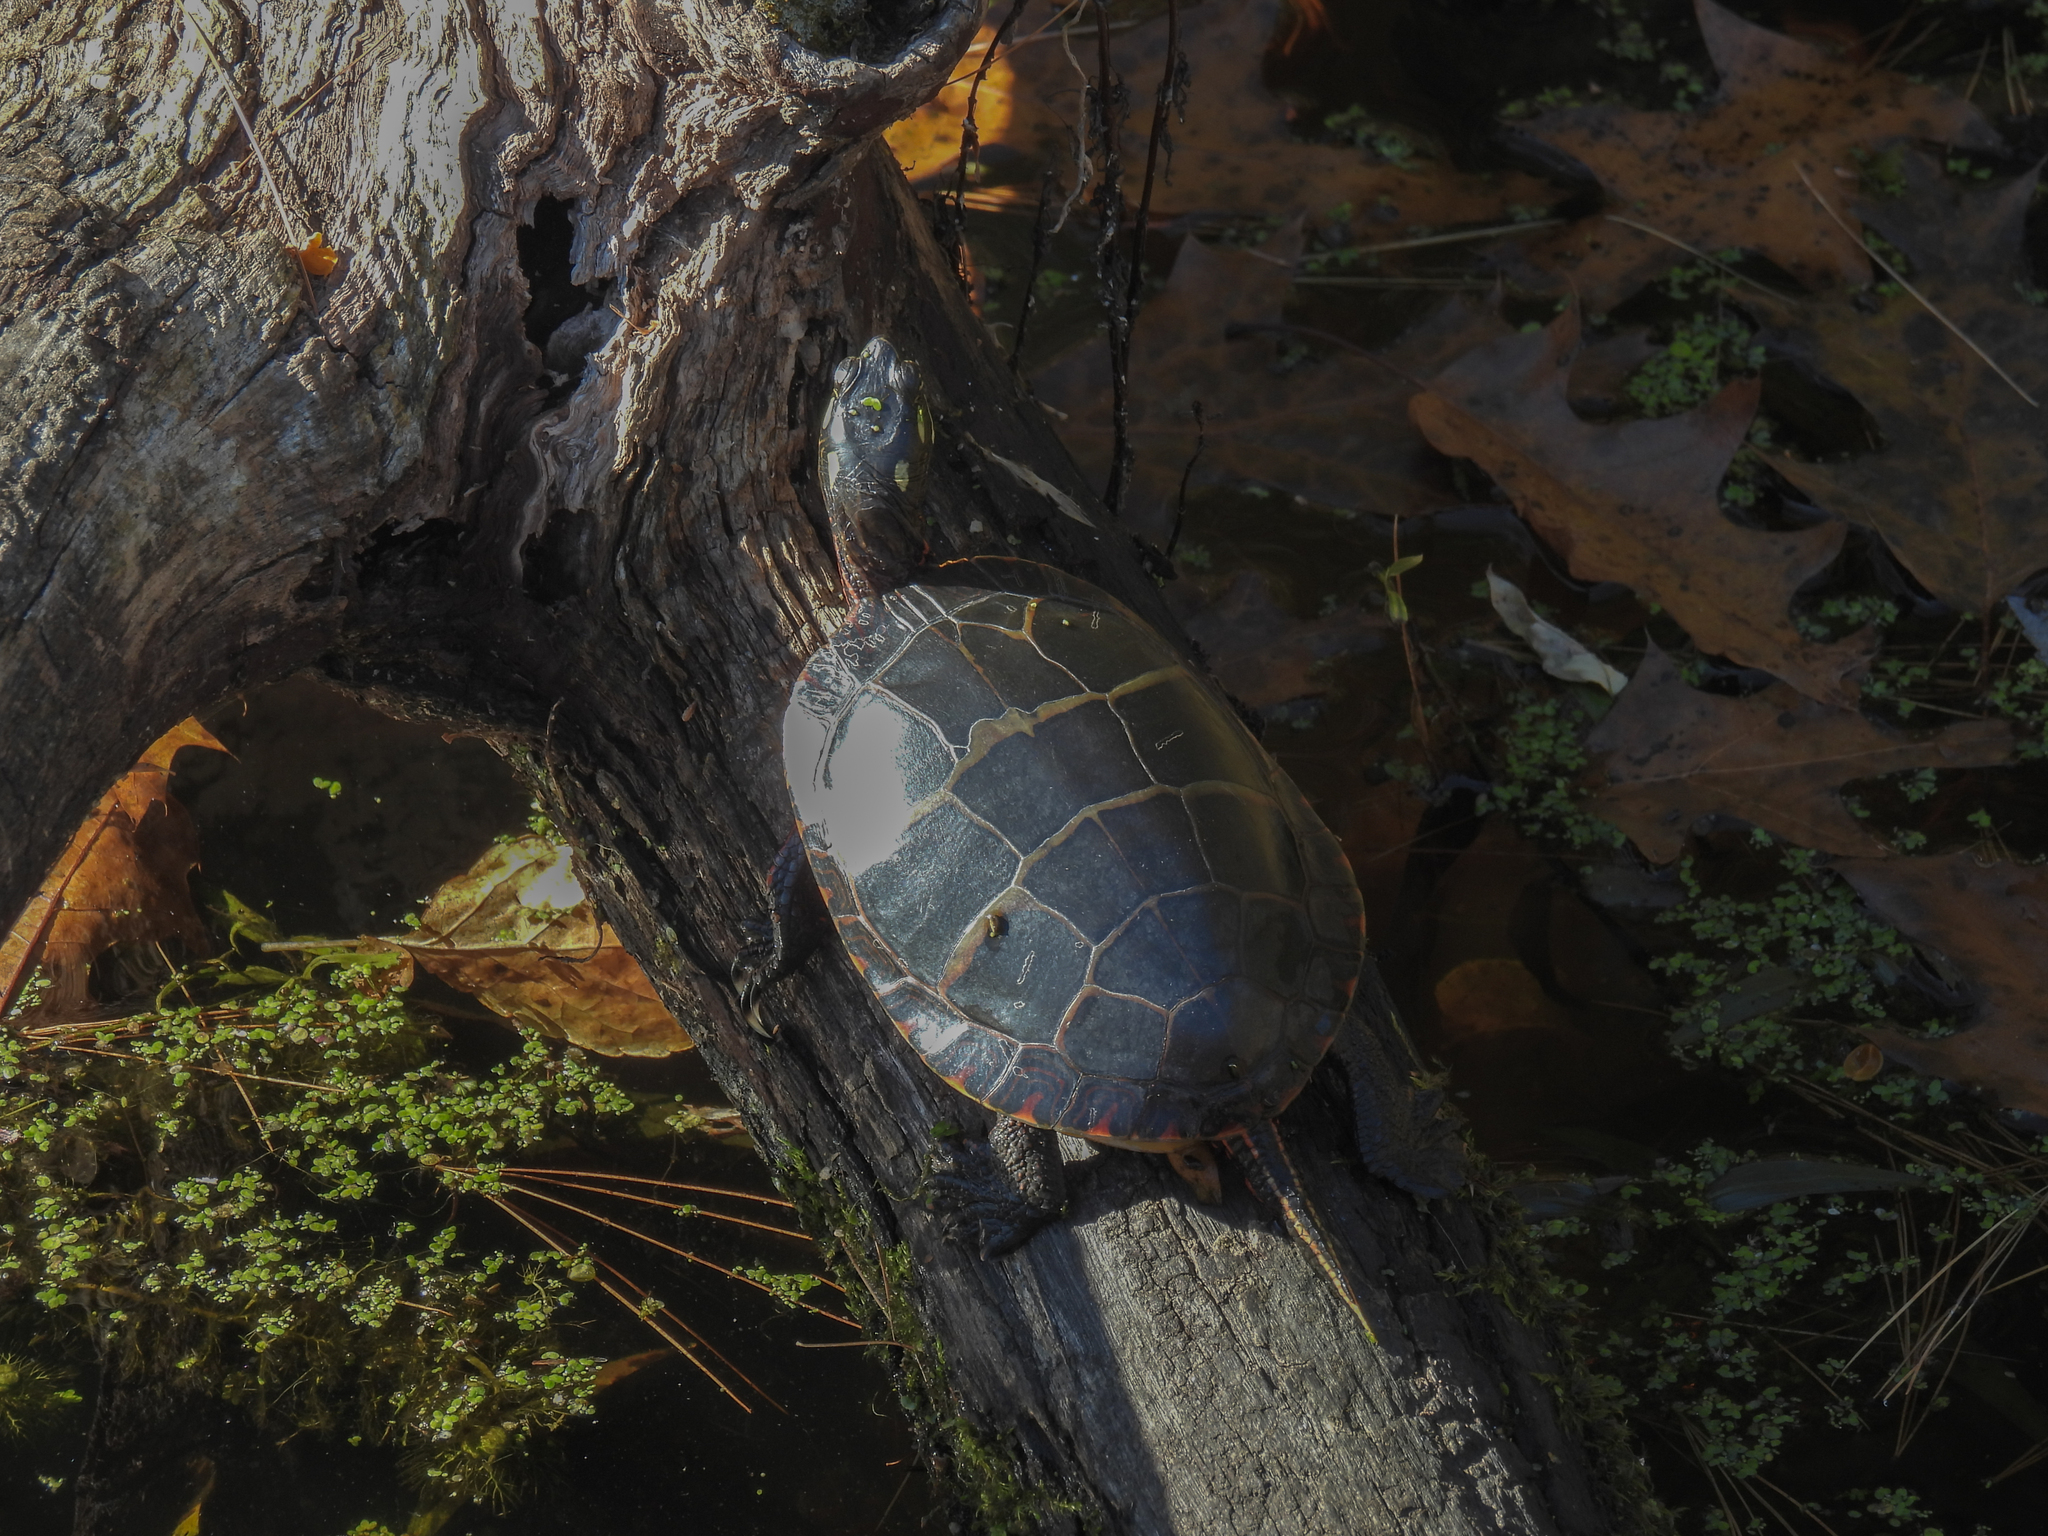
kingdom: Animalia
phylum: Chordata
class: Testudines
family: Emydidae
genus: Chrysemys
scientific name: Chrysemys picta
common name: Painted turtle
